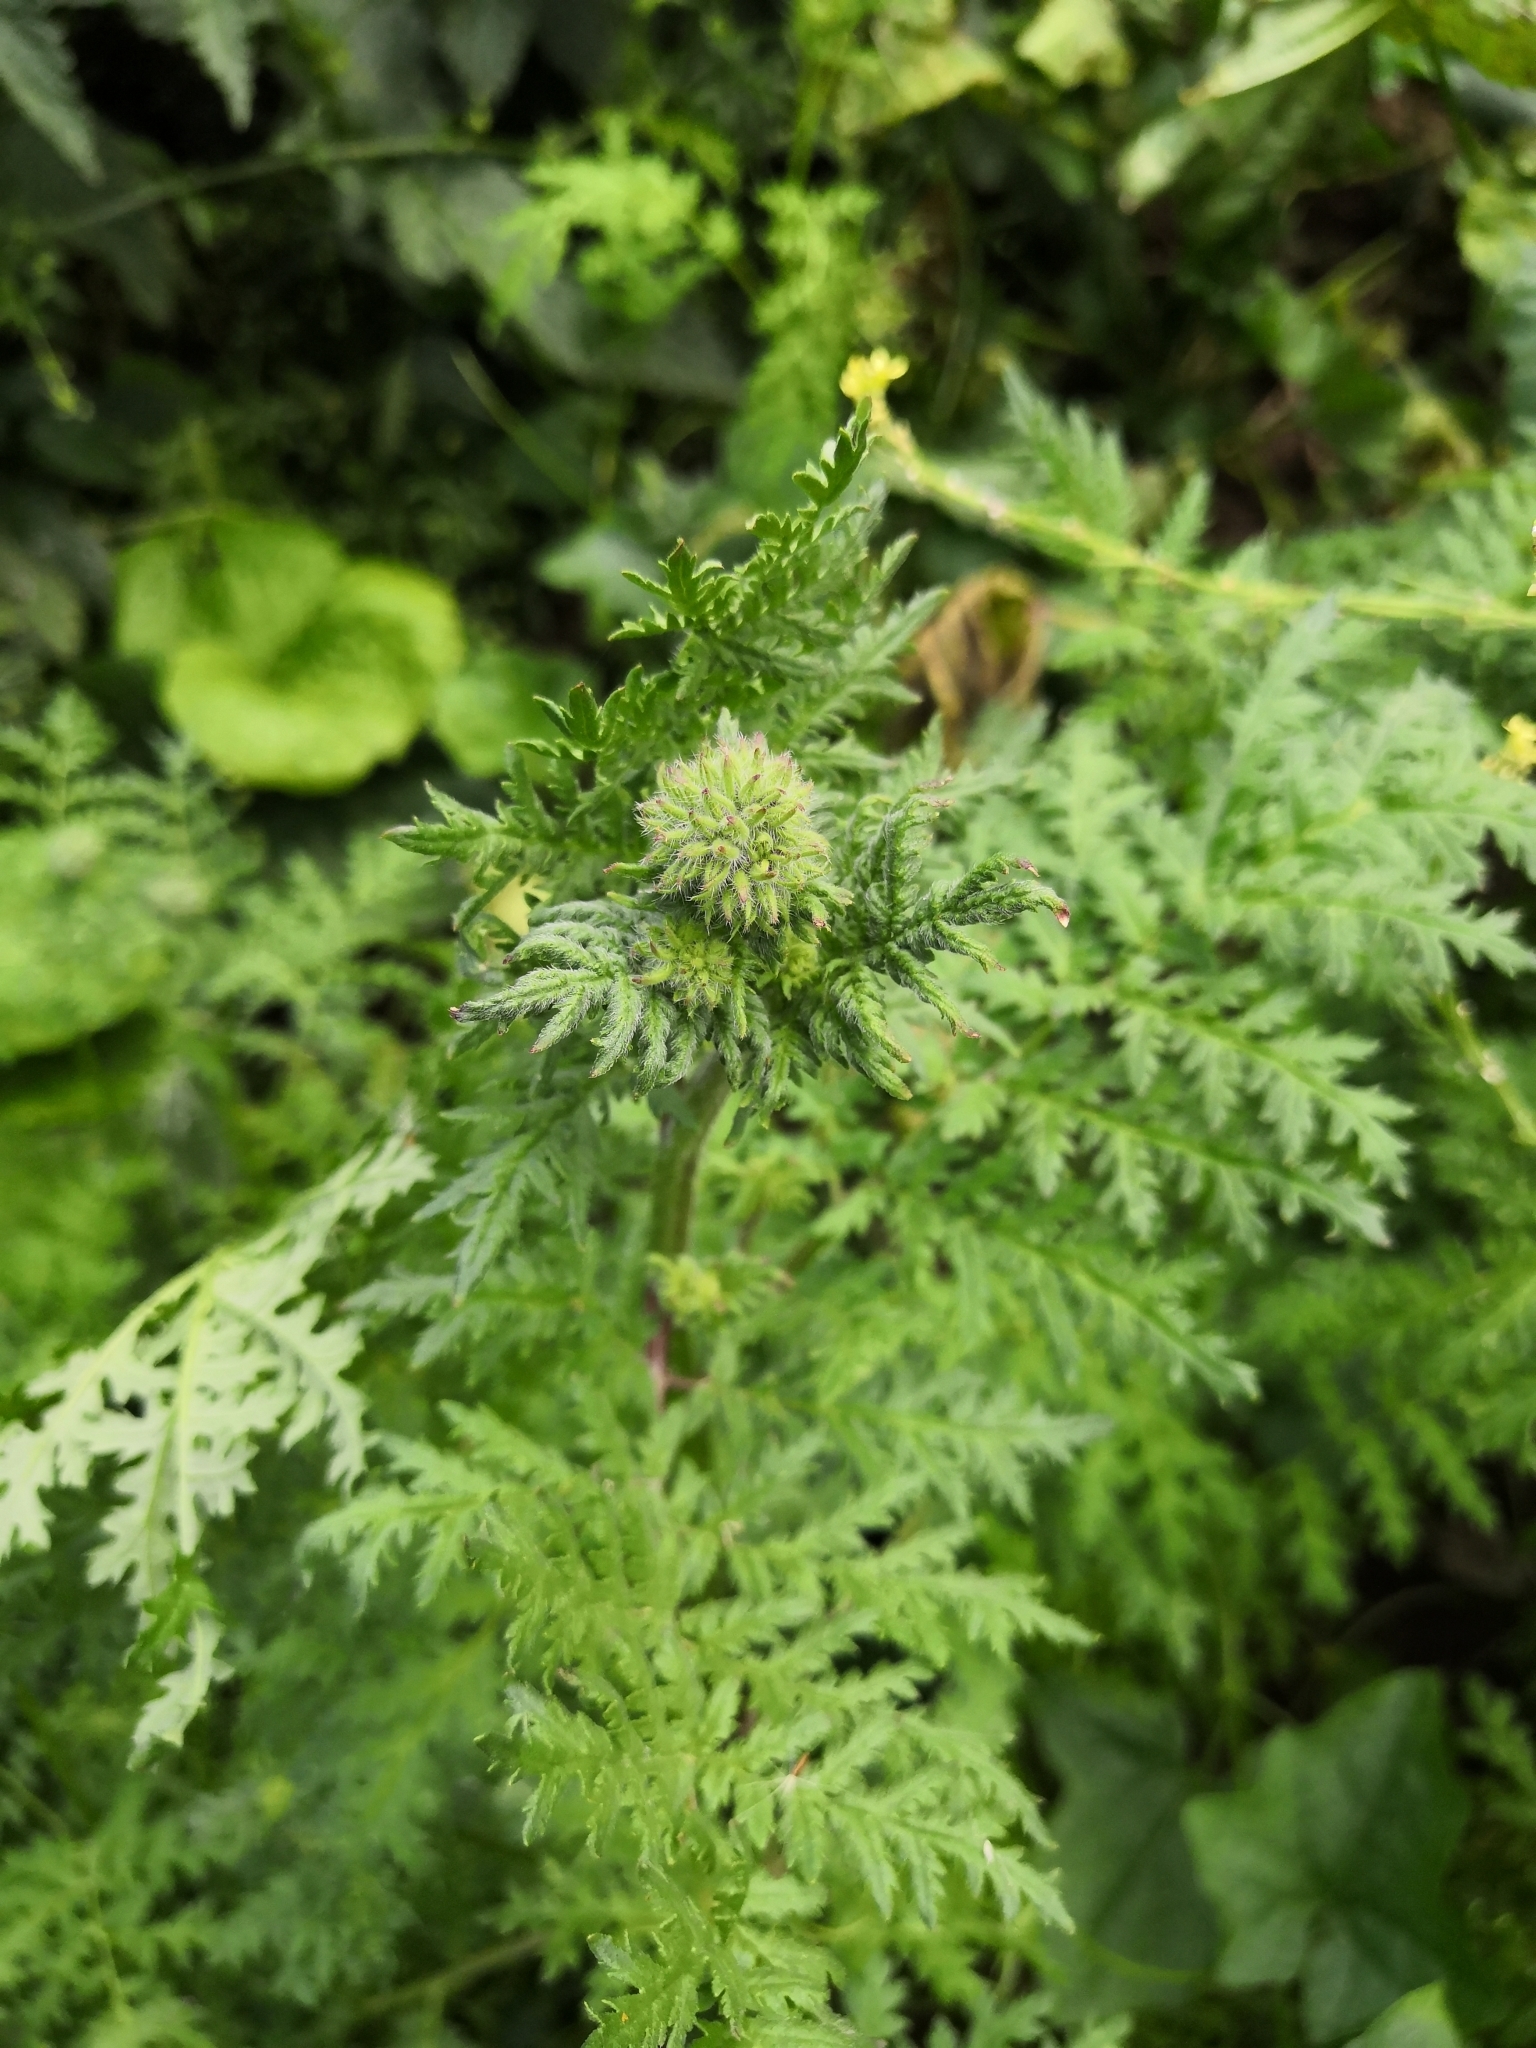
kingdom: Plantae
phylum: Tracheophyta
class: Magnoliopsida
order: Boraginales
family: Hydrophyllaceae
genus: Phacelia
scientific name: Phacelia tanacetifolia
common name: Phacelia
